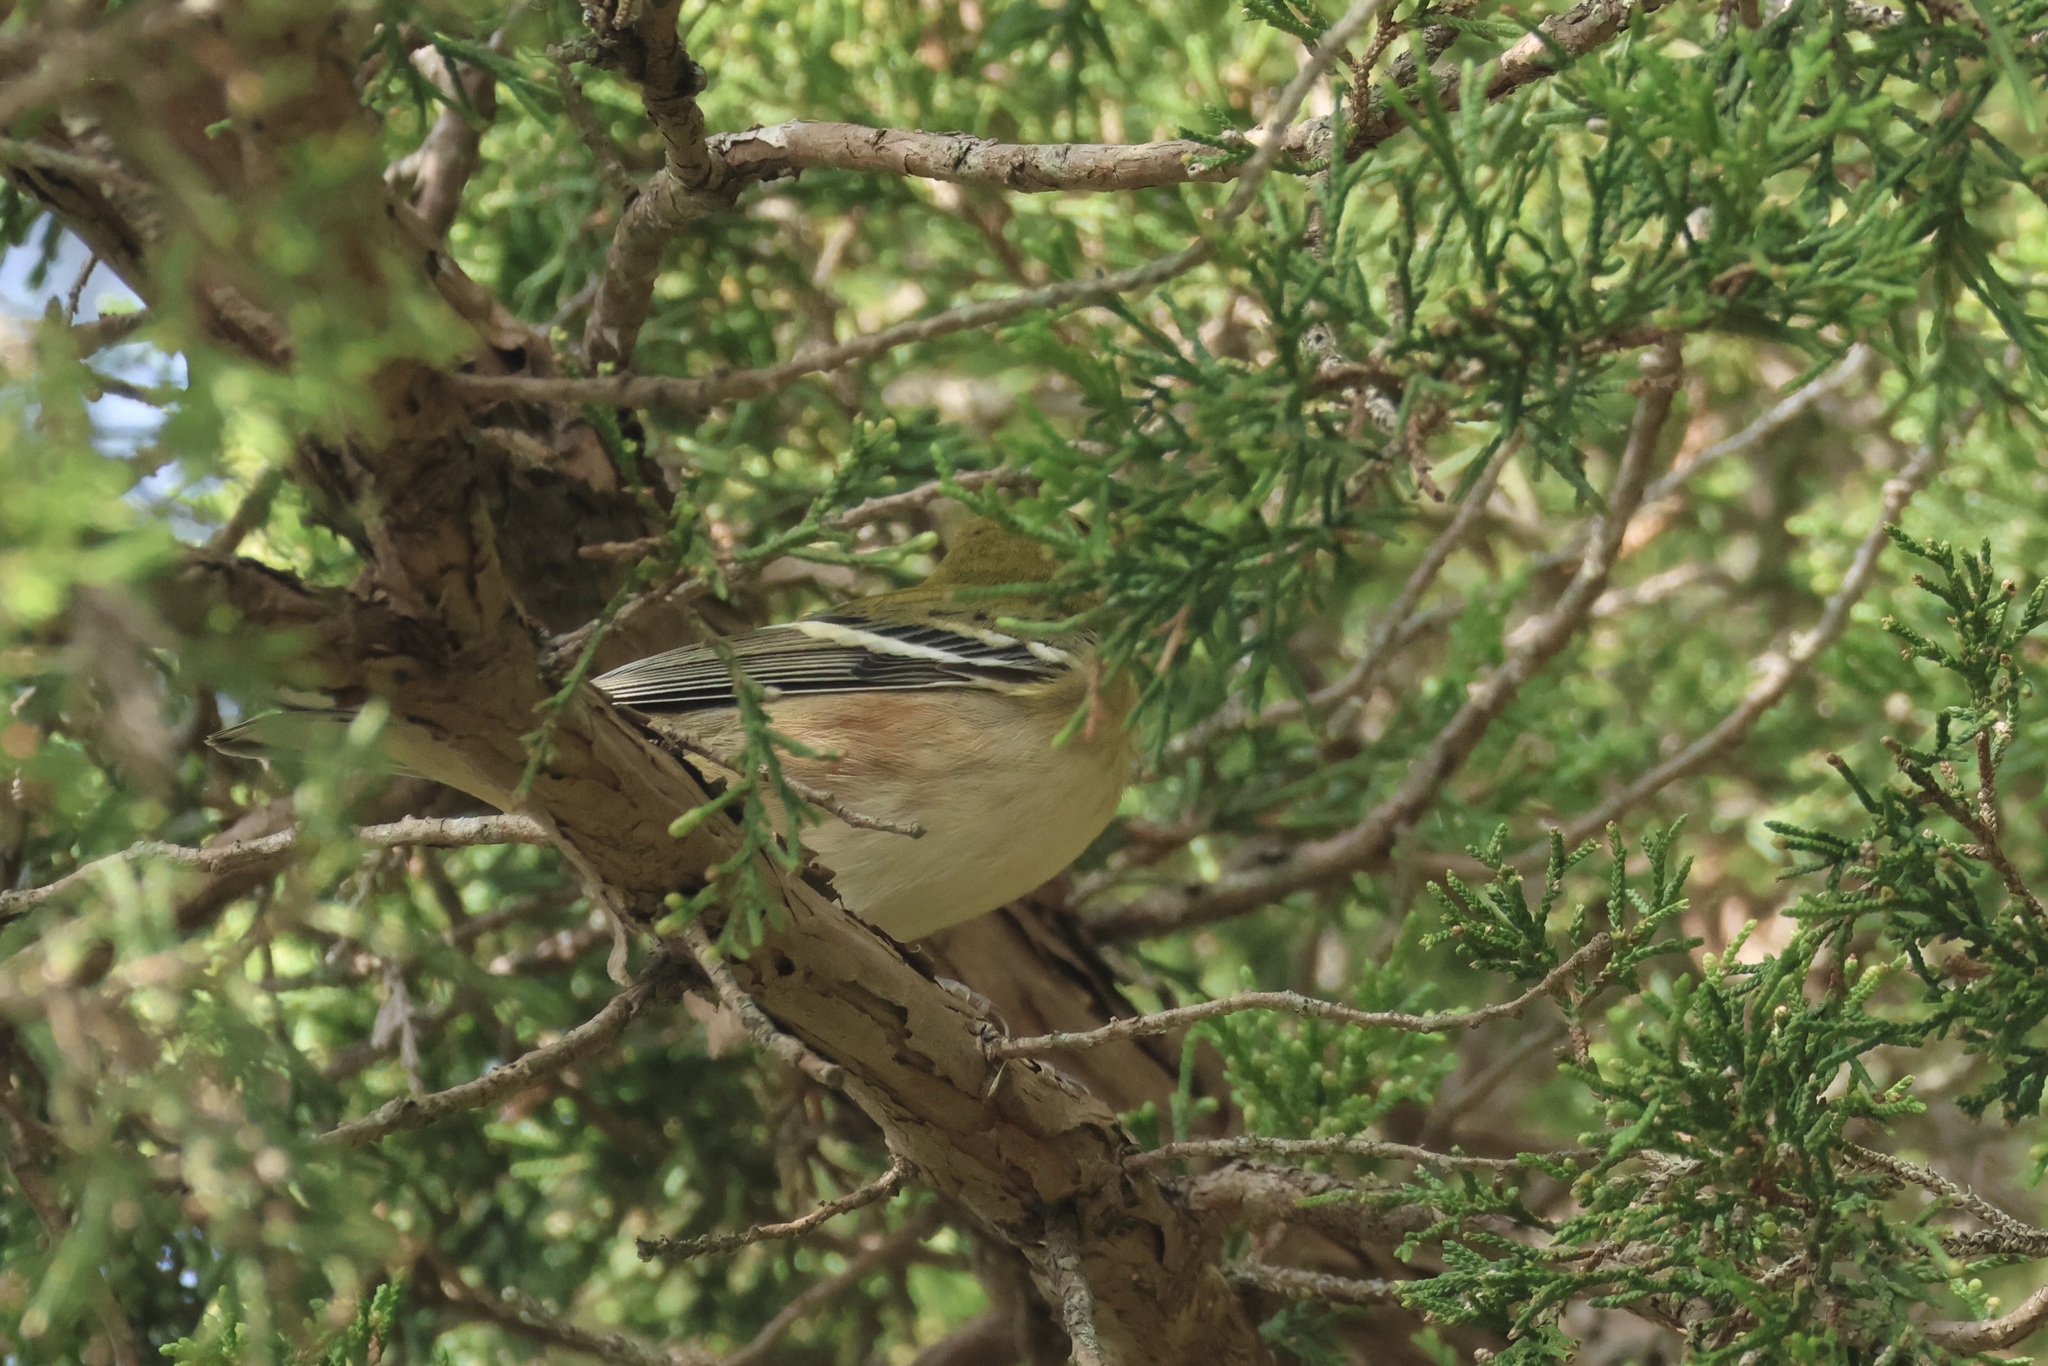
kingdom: Animalia
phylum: Chordata
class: Aves
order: Passeriformes
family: Parulidae
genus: Setophaga
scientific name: Setophaga castanea
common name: Bay-breasted warbler
